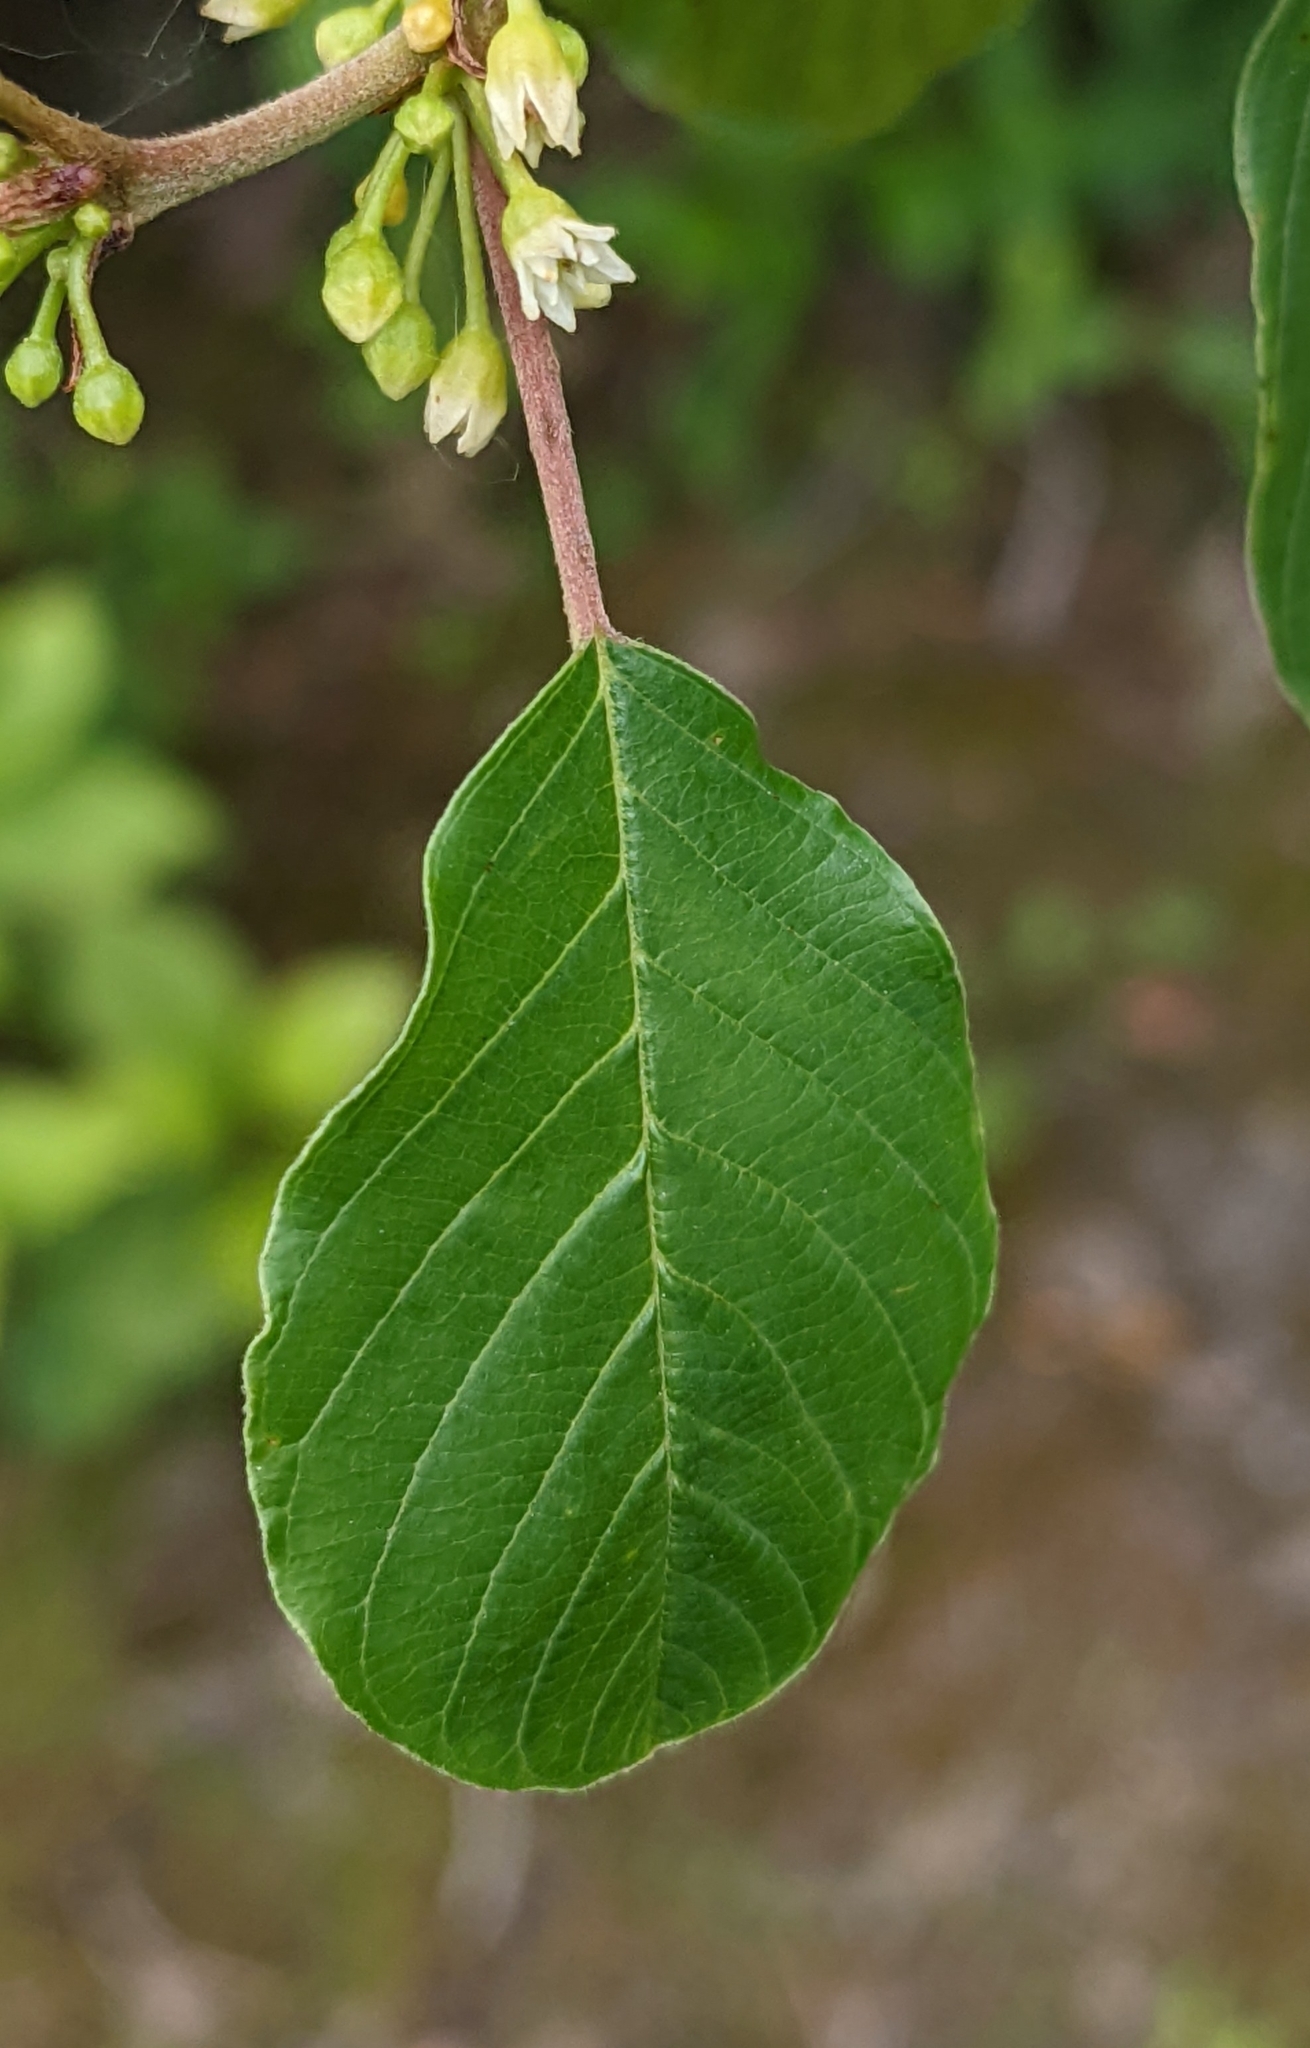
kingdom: Plantae
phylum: Tracheophyta
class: Magnoliopsida
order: Rosales
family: Rhamnaceae
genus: Frangula
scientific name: Frangula alnus
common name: Alder buckthorn
